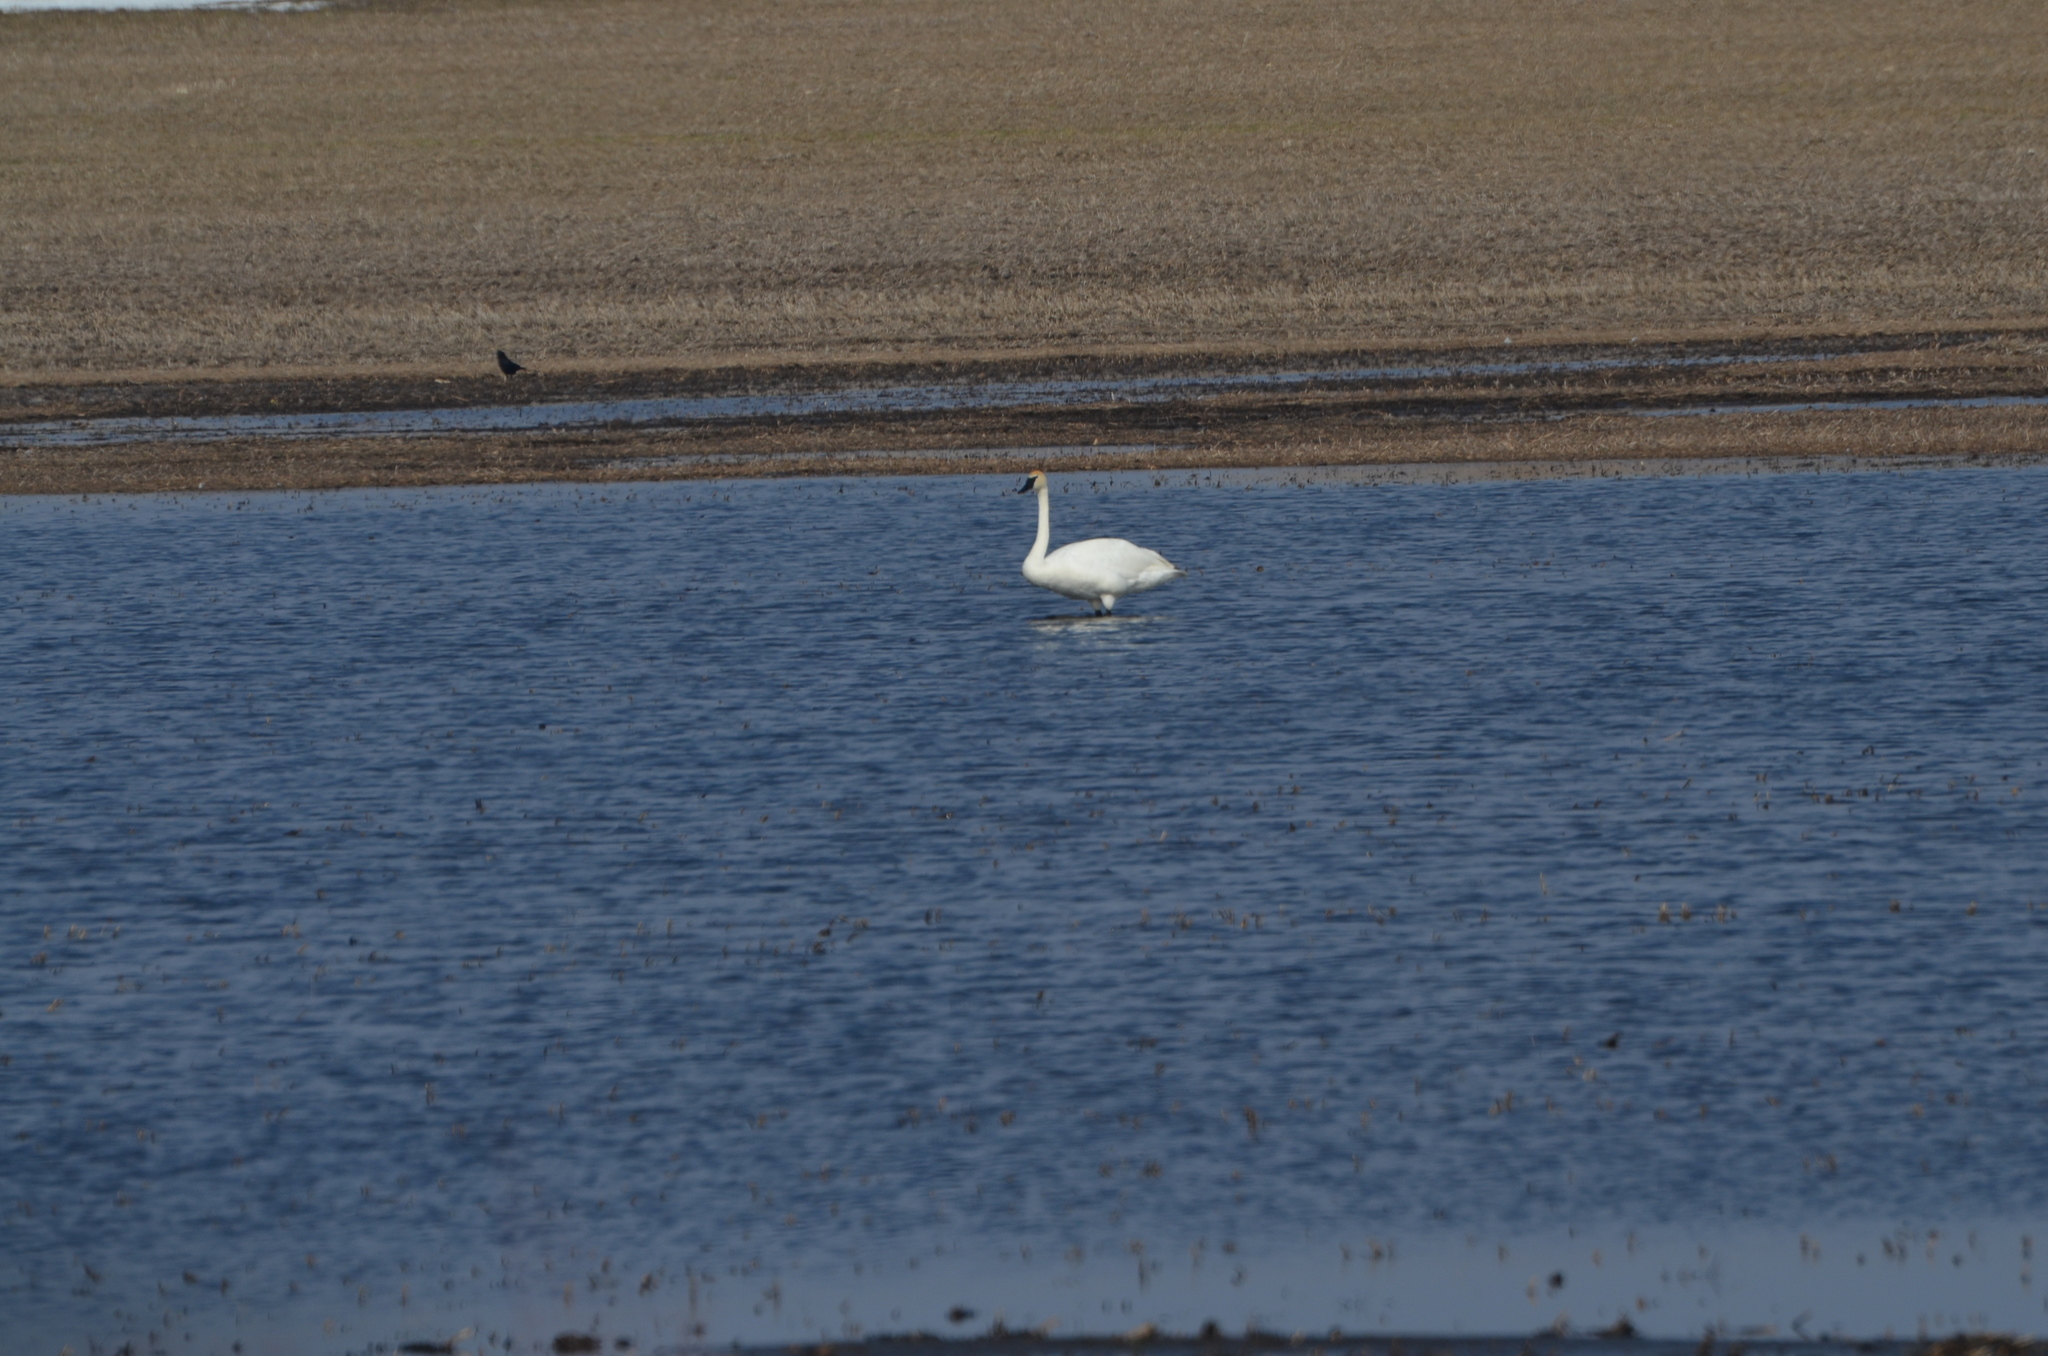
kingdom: Animalia
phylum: Chordata
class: Aves
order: Anseriformes
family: Anatidae
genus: Cygnus
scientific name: Cygnus buccinator
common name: Trumpeter swan
